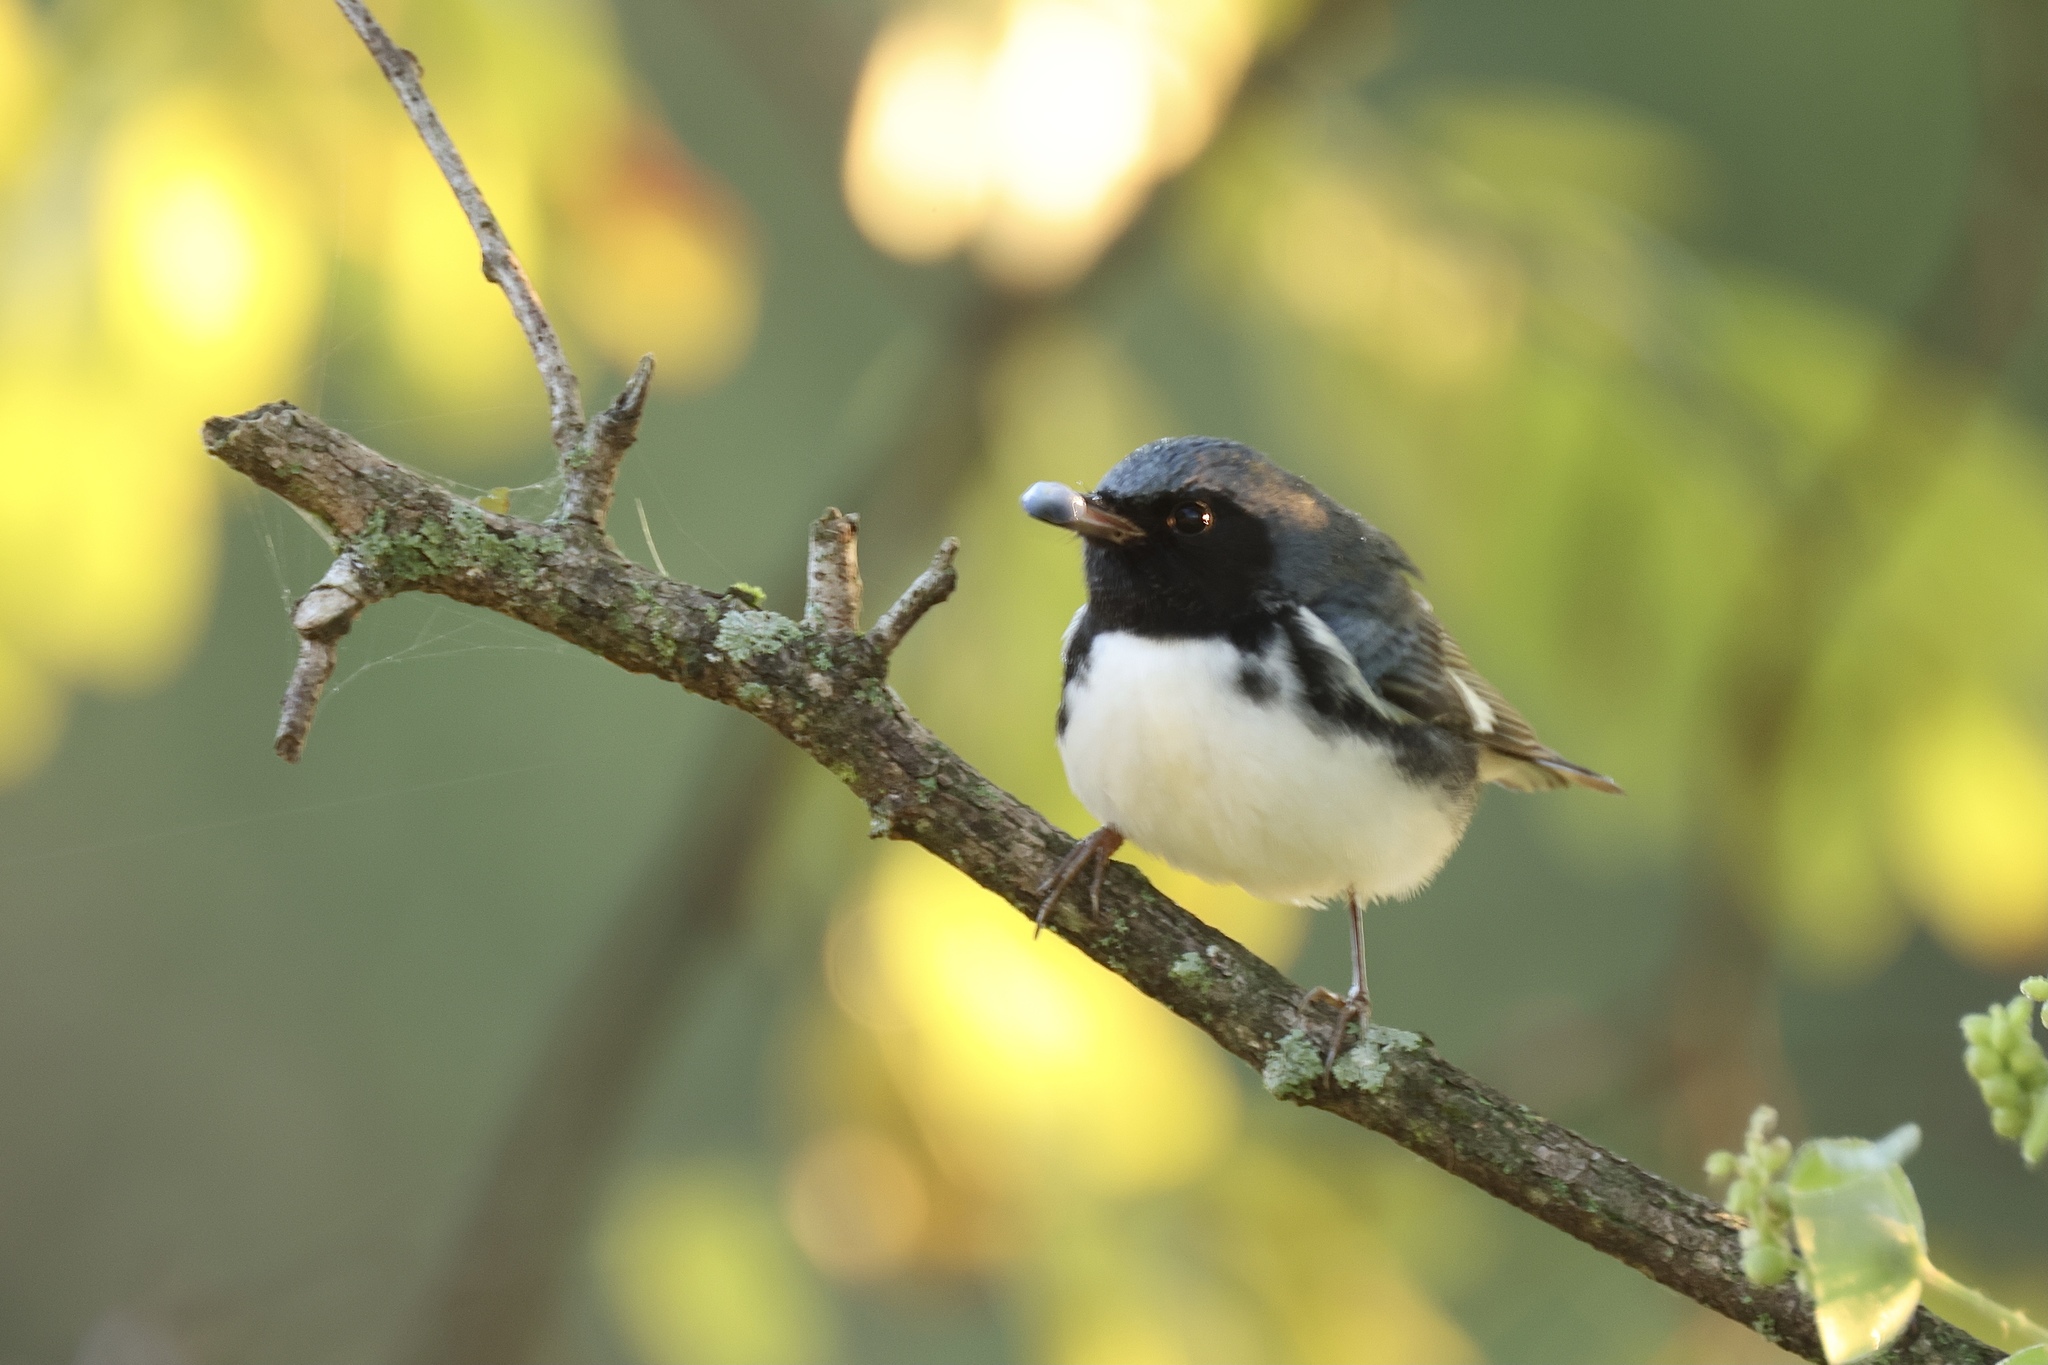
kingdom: Animalia
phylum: Chordata
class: Aves
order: Passeriformes
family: Parulidae
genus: Setophaga
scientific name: Setophaga caerulescens
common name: Black-throated blue warbler
